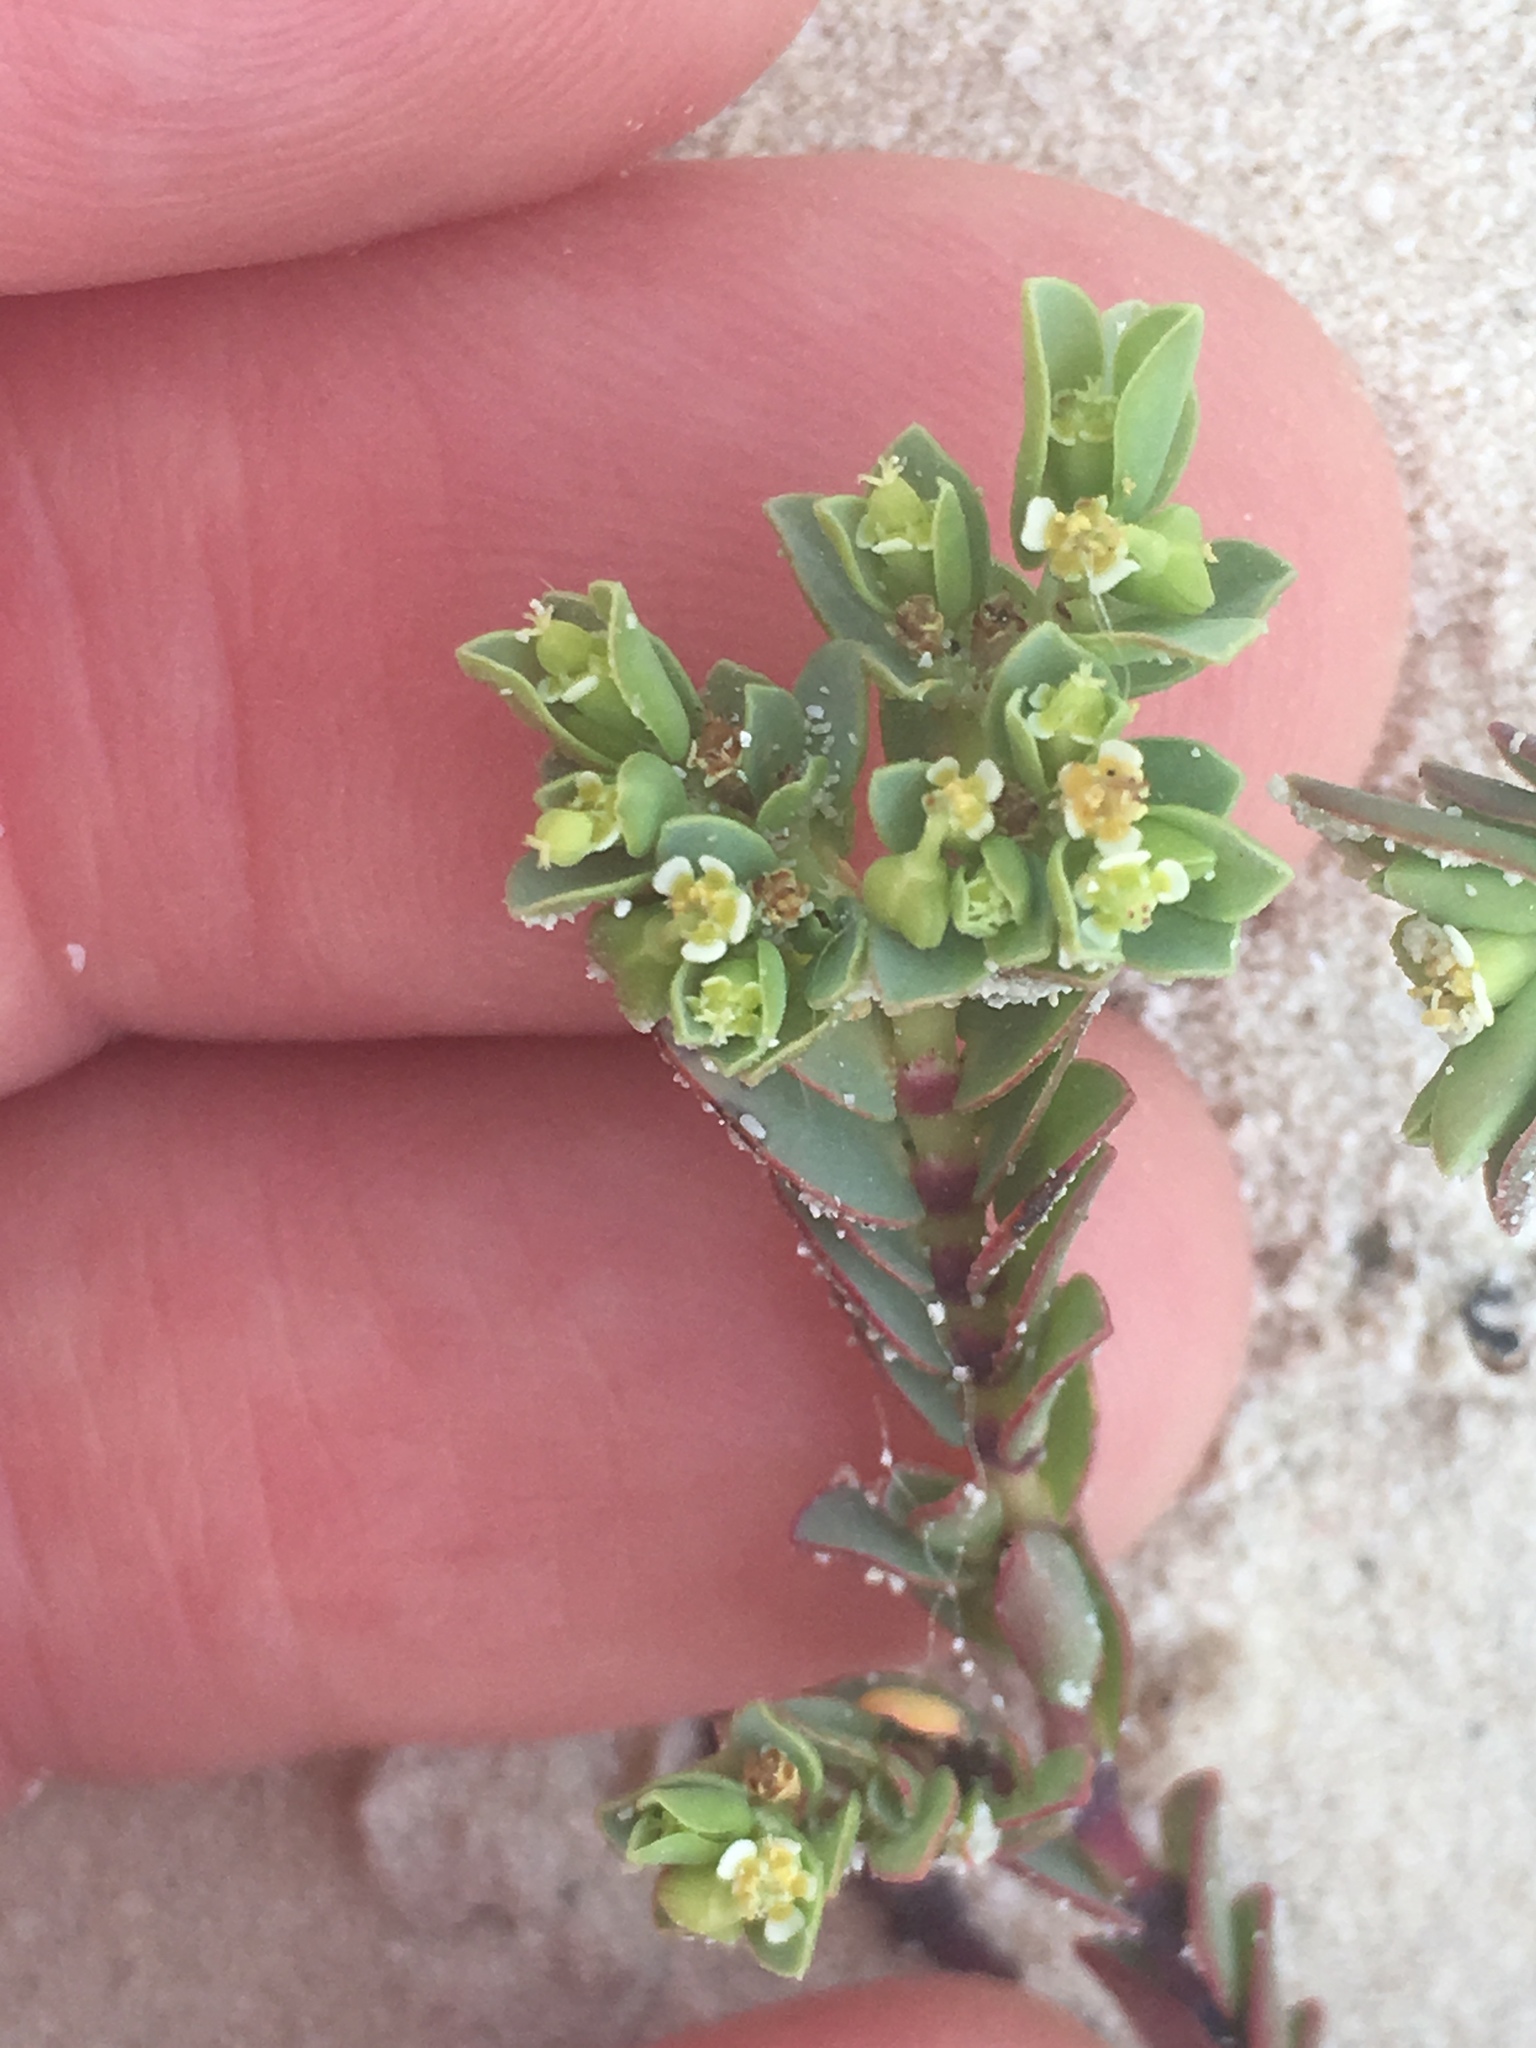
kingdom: Plantae
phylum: Tracheophyta
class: Magnoliopsida
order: Malpighiales
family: Euphorbiaceae
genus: Euphorbia
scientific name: Euphorbia mesembryanthemifolia
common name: Coastal beach sandmat
